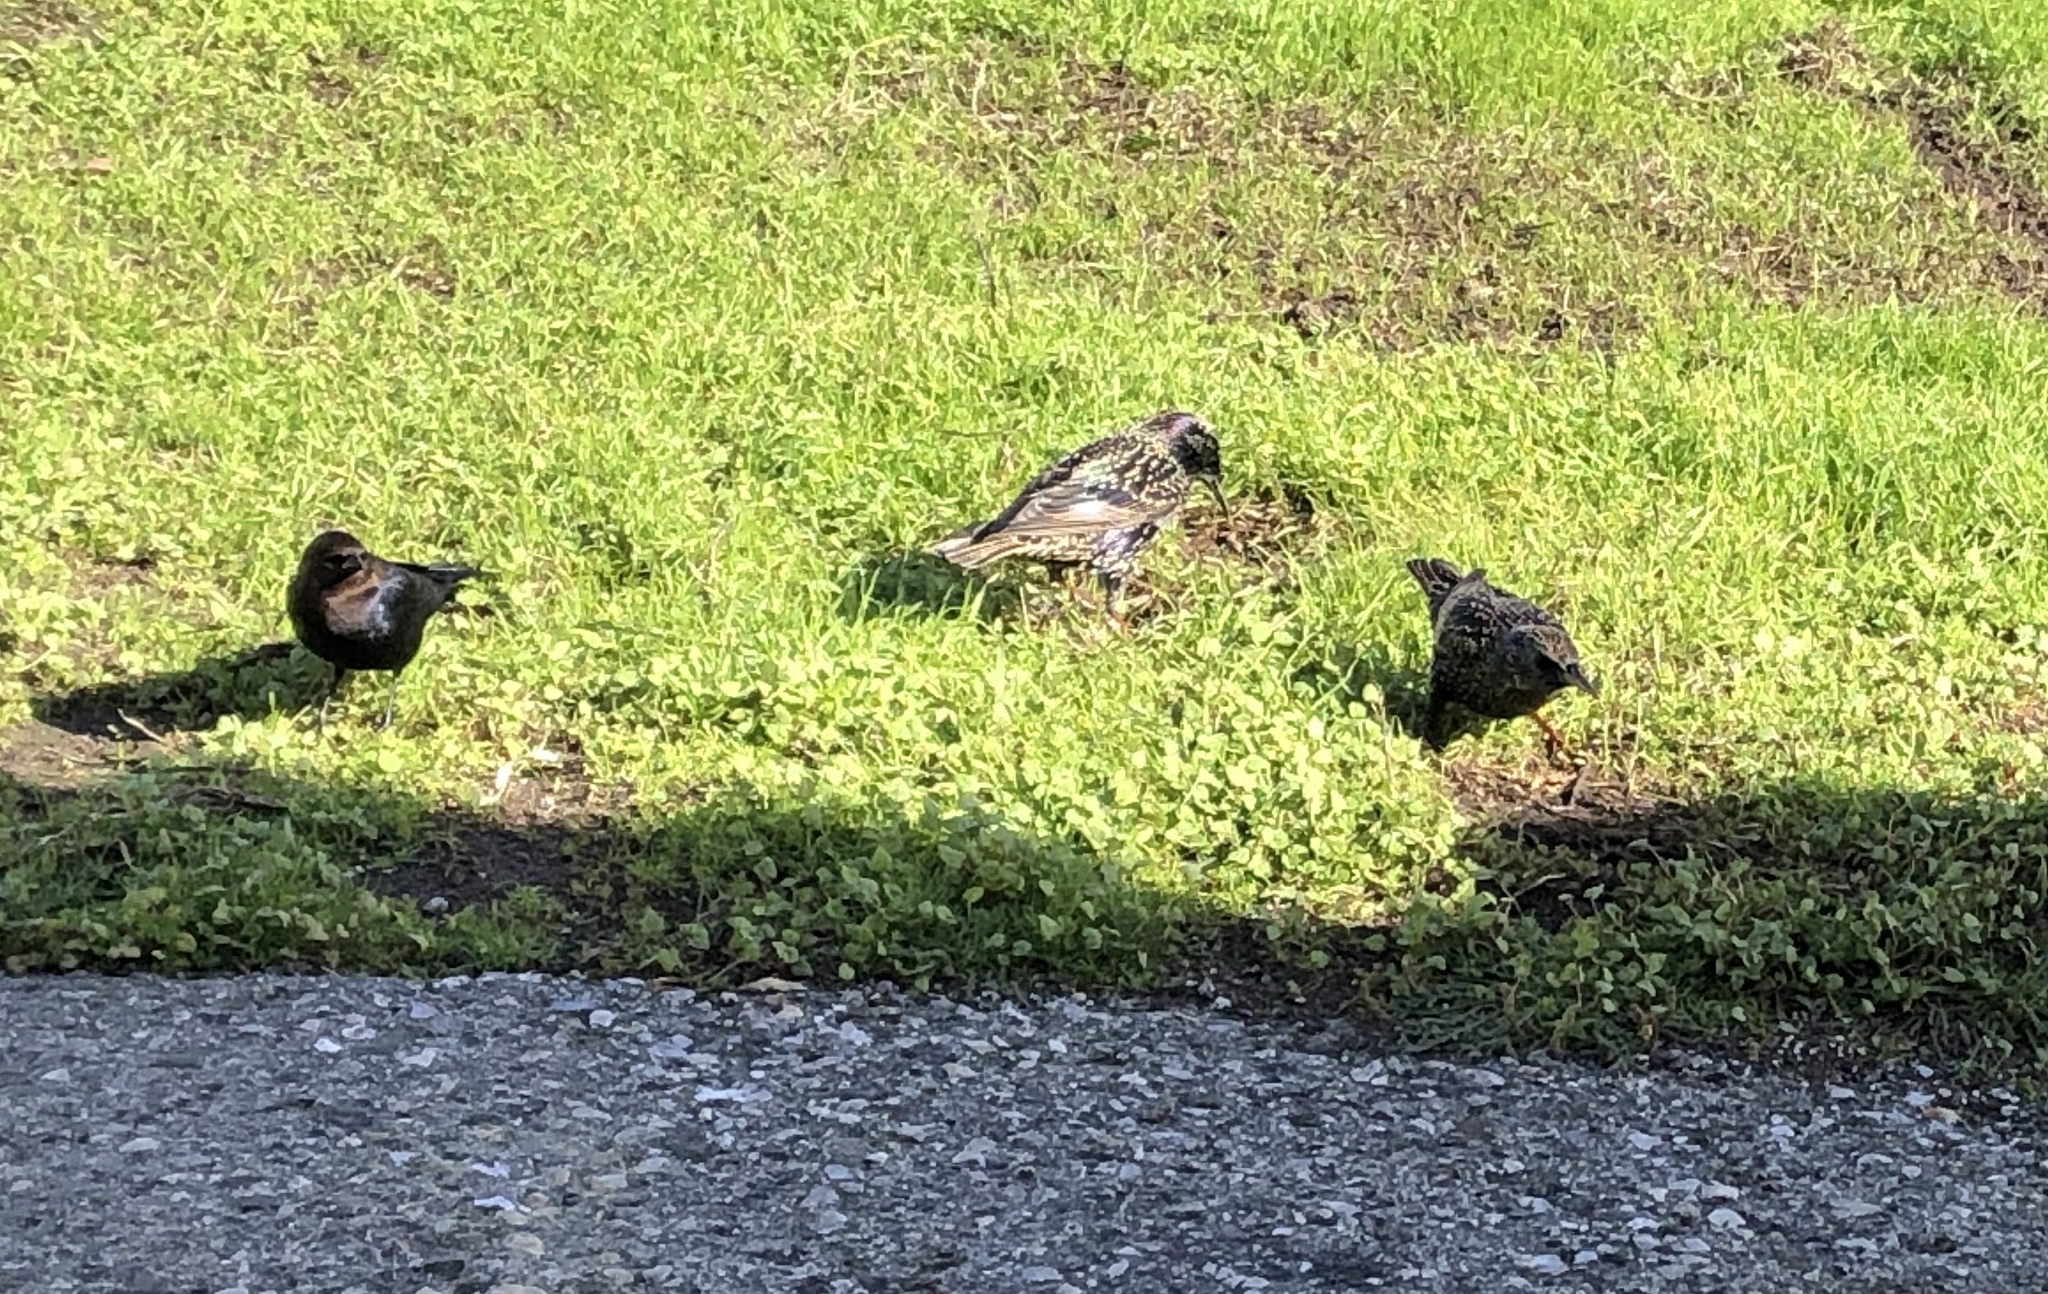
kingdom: Animalia
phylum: Chordata
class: Aves
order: Passeriformes
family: Sturnidae
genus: Sturnus
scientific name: Sturnus vulgaris
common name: Common starling
